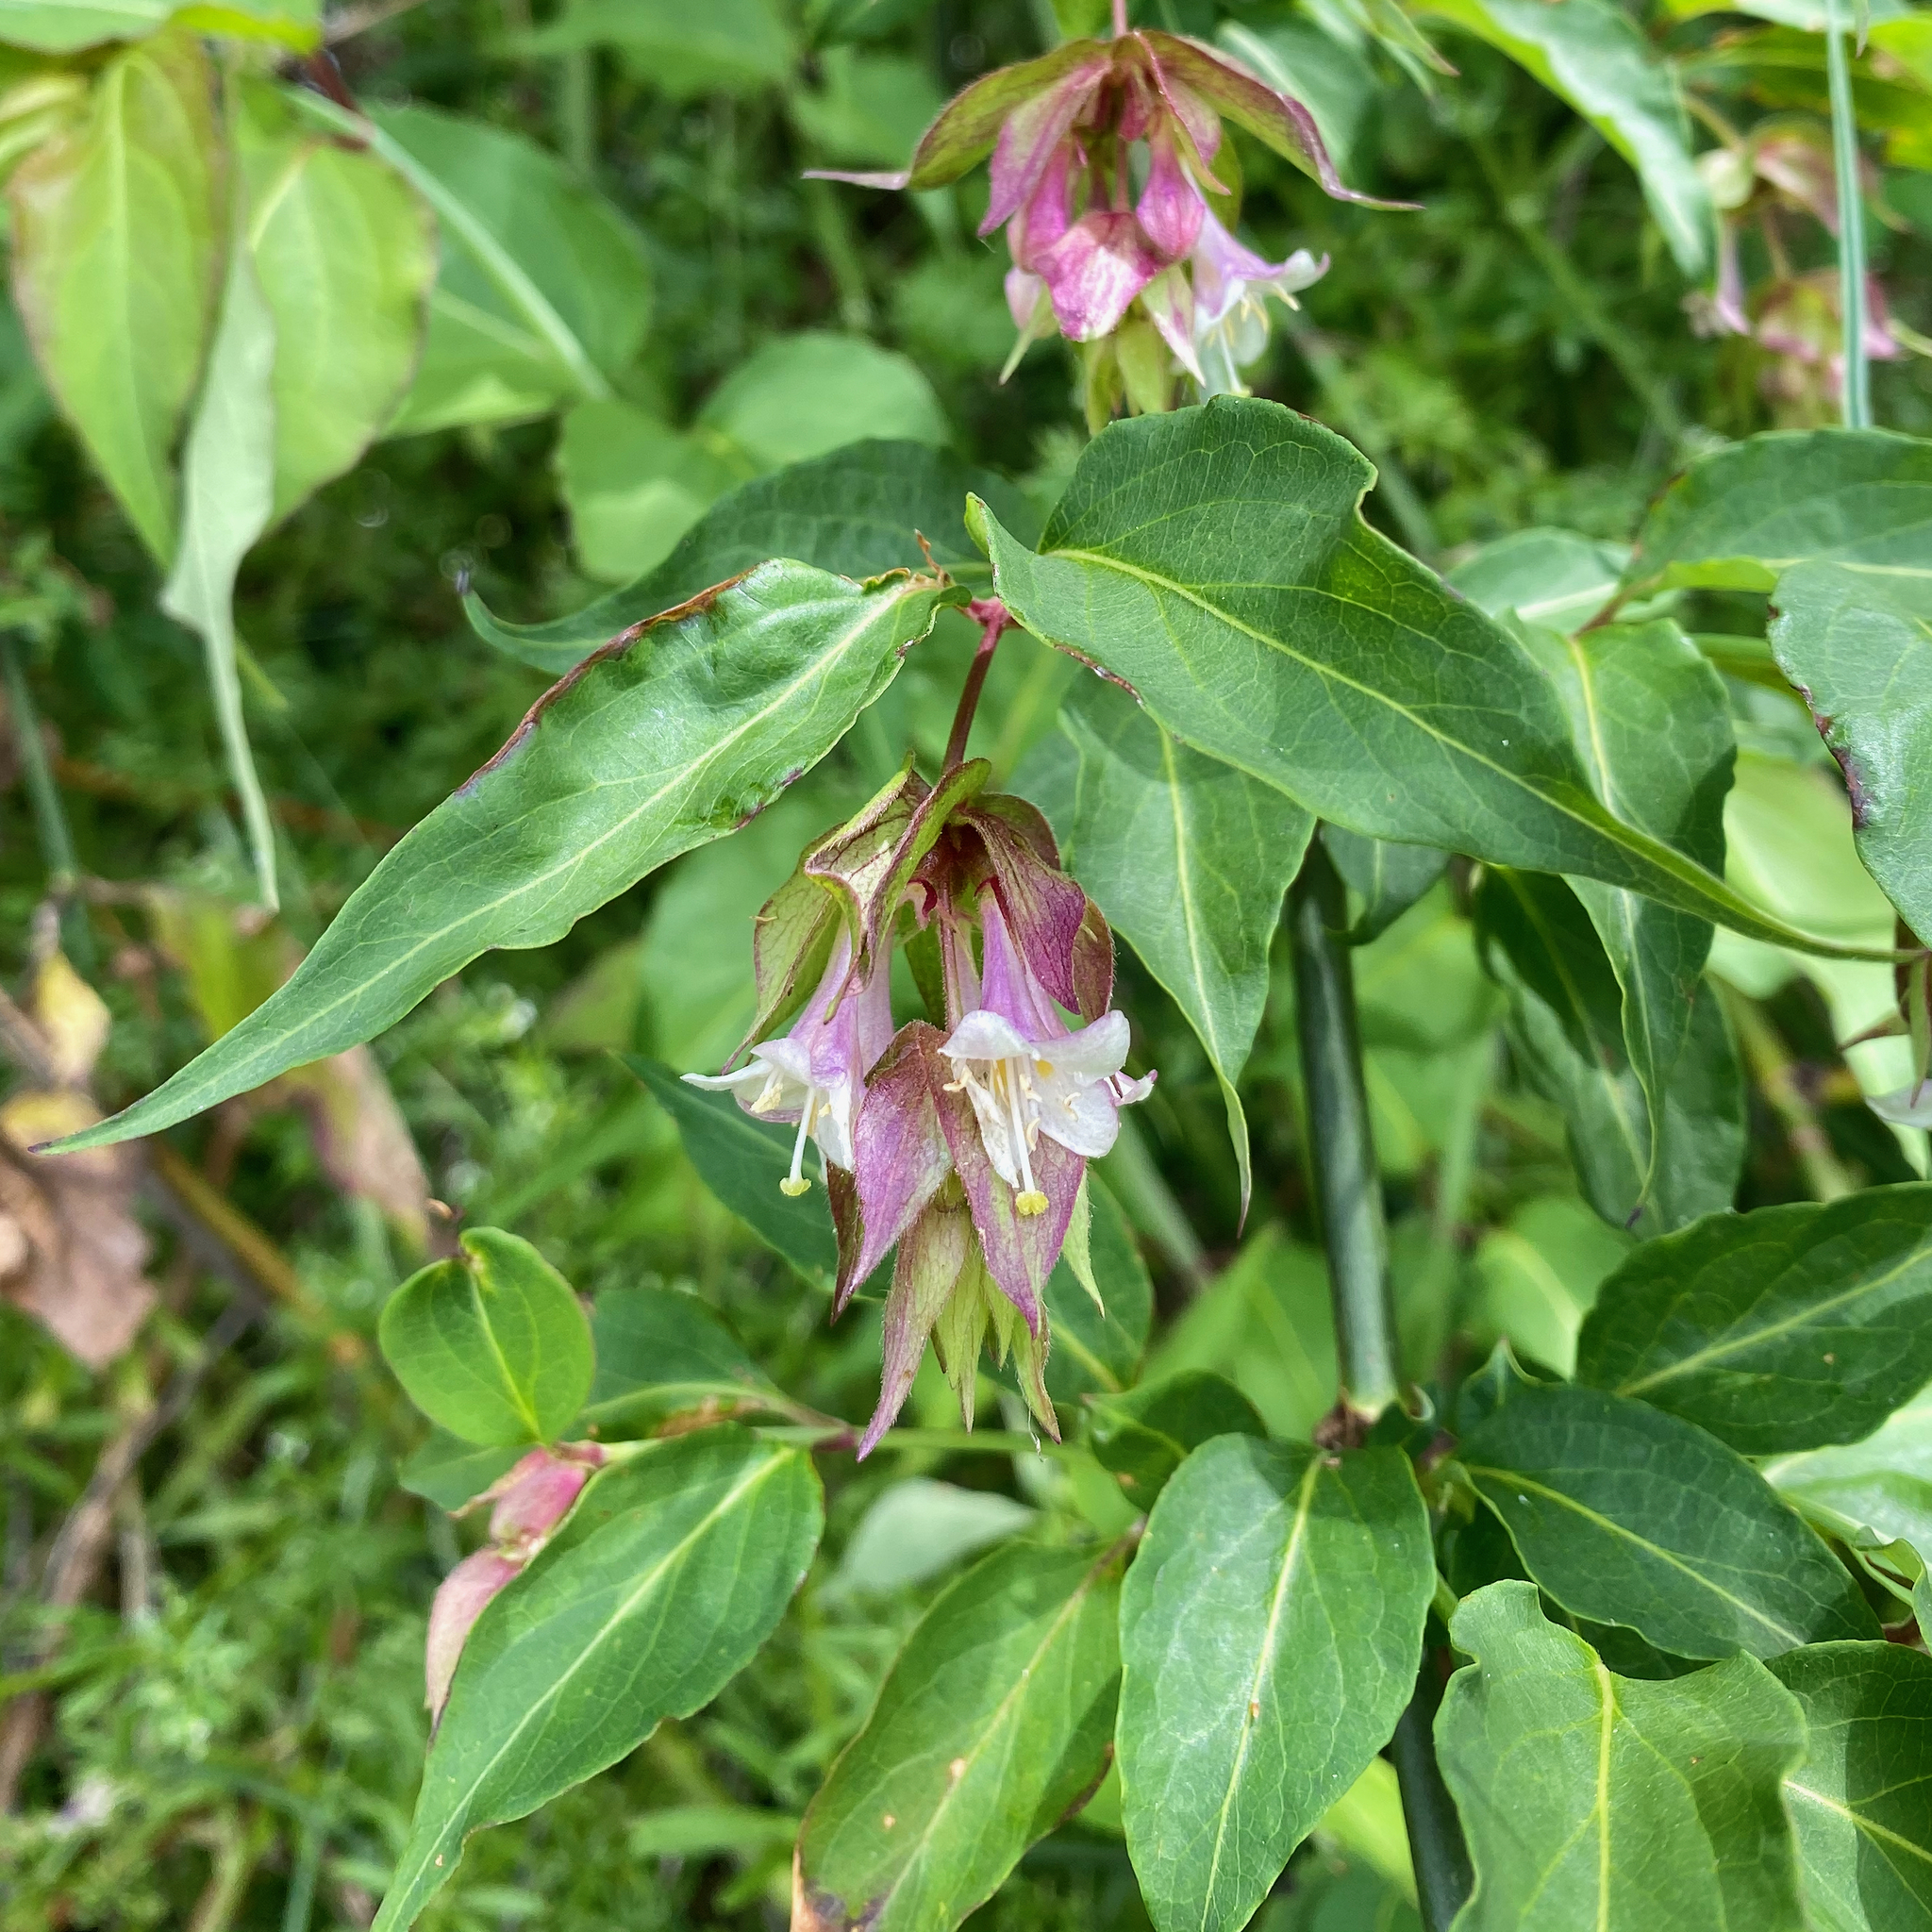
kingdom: Plantae
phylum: Tracheophyta
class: Magnoliopsida
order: Dipsacales
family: Caprifoliaceae
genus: Leycesteria
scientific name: Leycesteria formosa
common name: Himalayan honeysuckle
